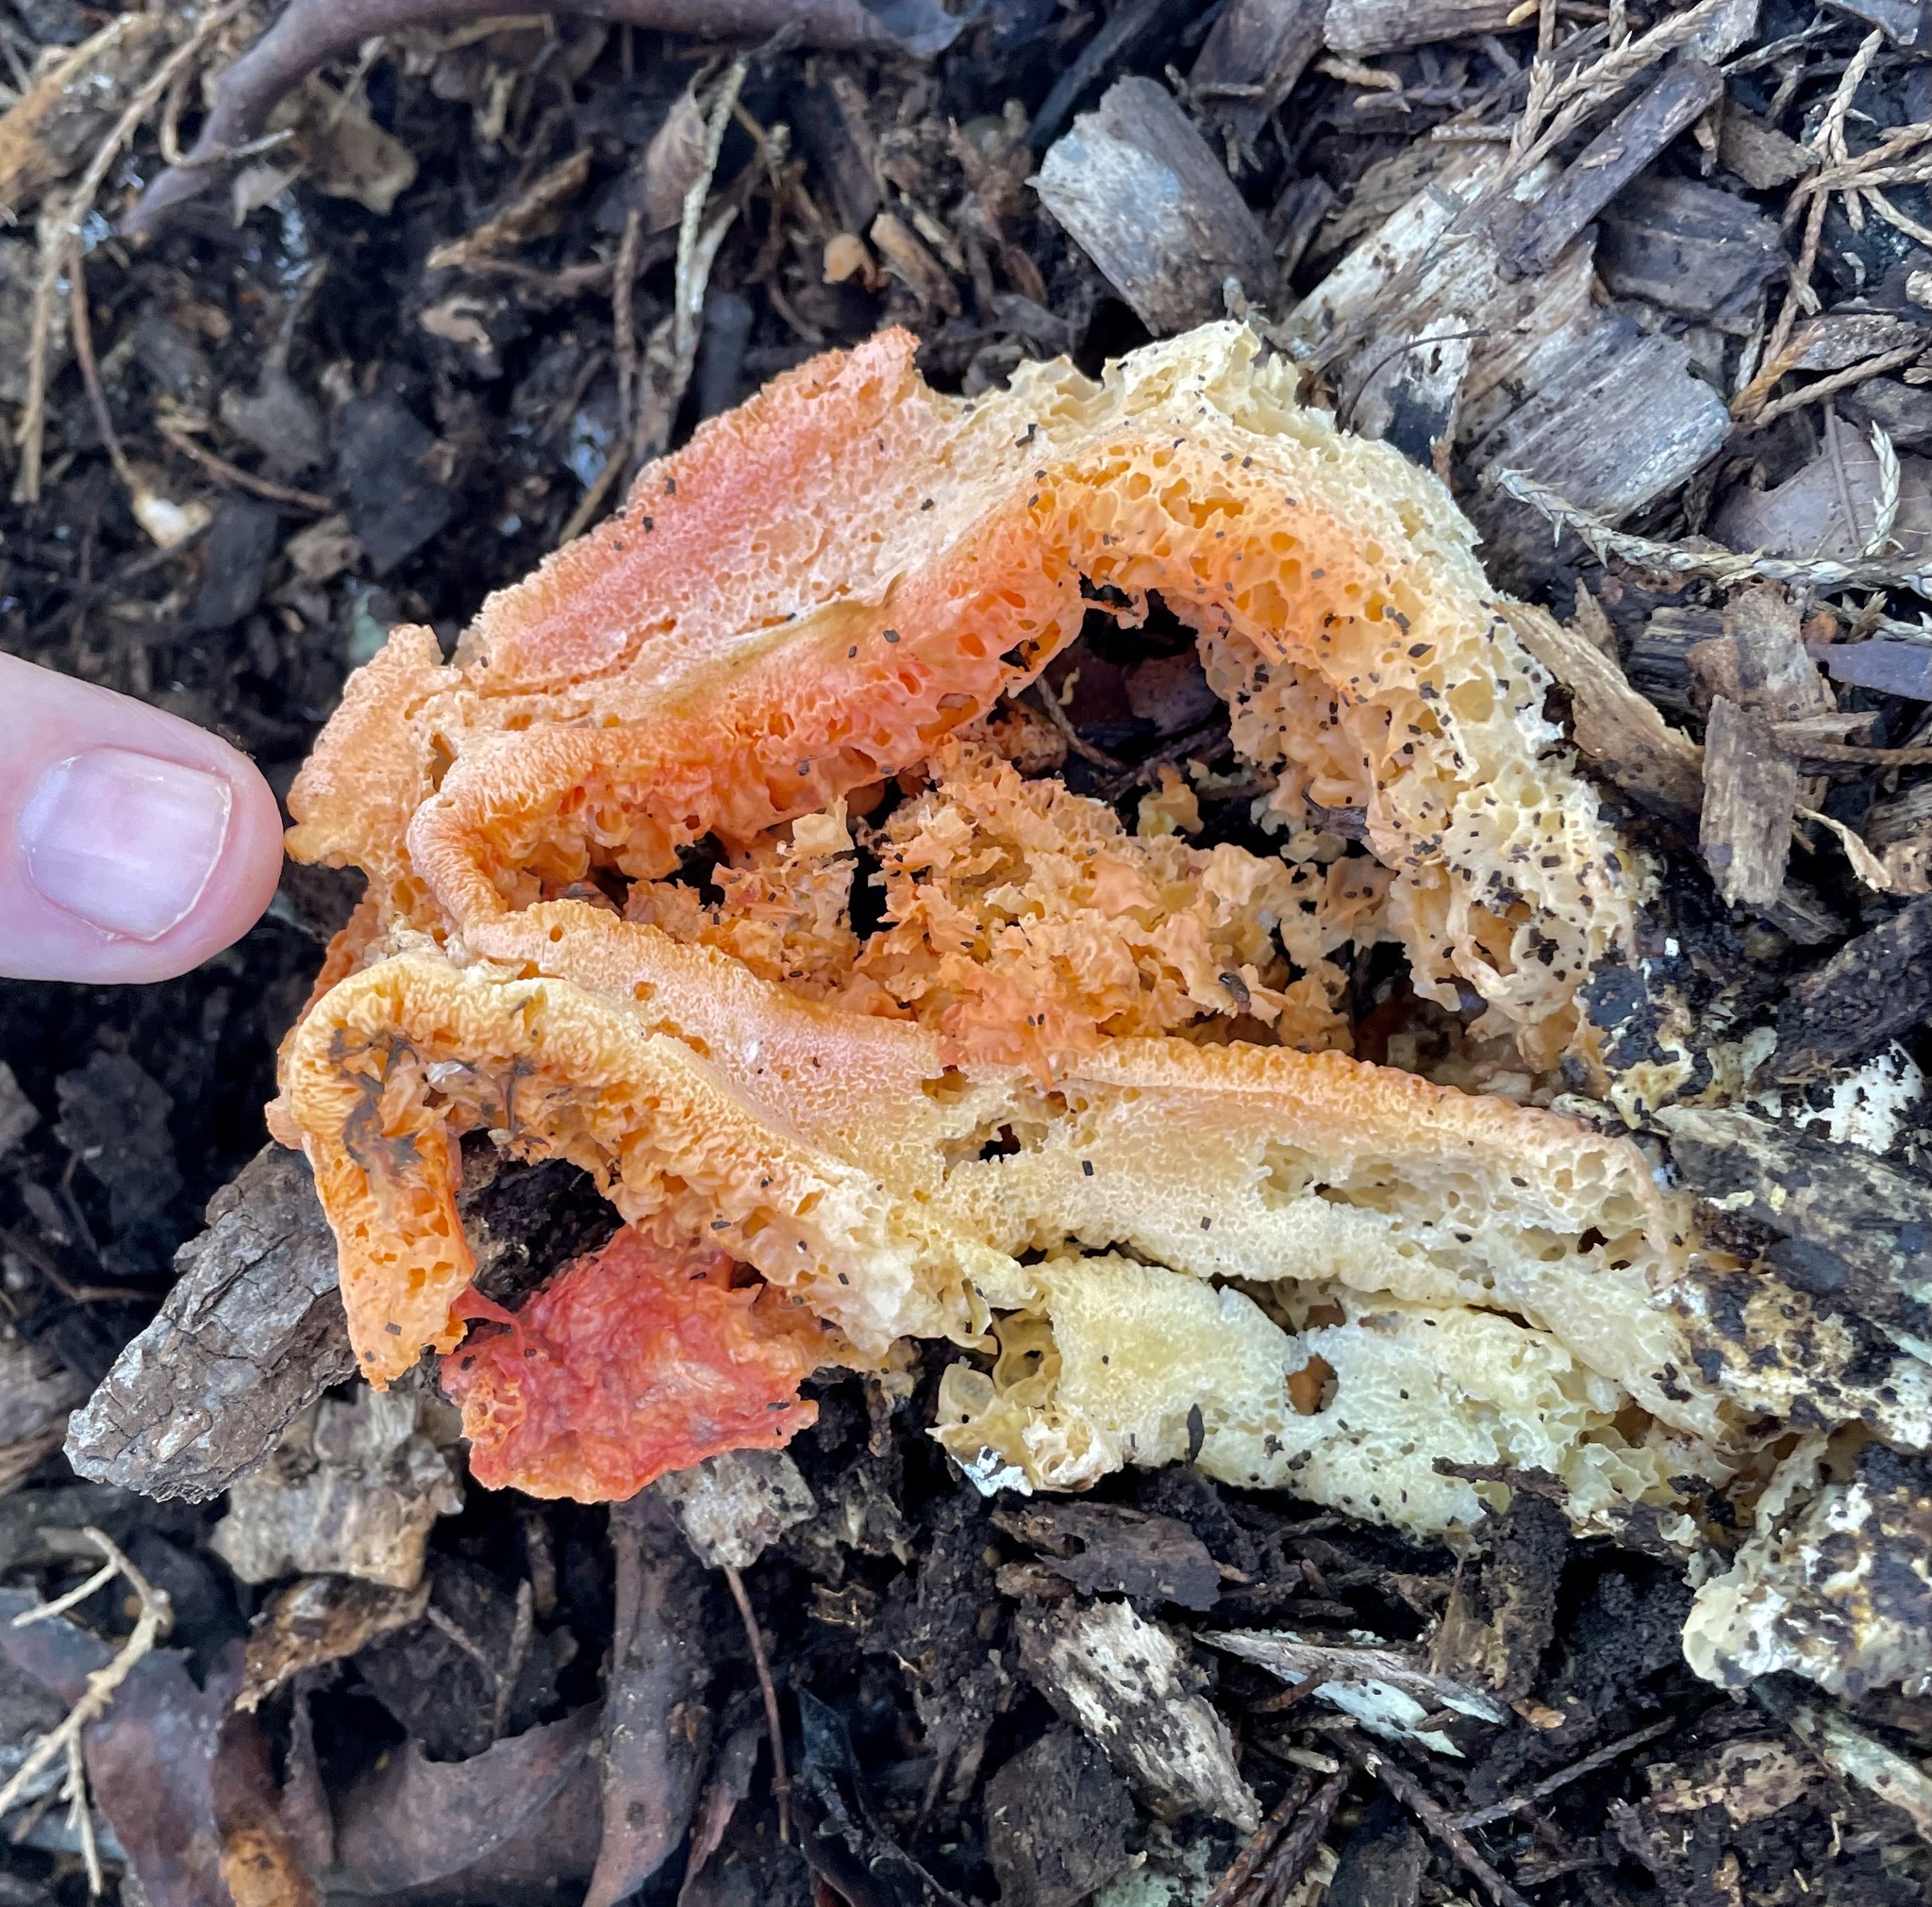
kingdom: Fungi
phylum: Basidiomycota
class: Agaricomycetes
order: Phallales
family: Phallaceae
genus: Clathrus
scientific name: Clathrus columnatus
